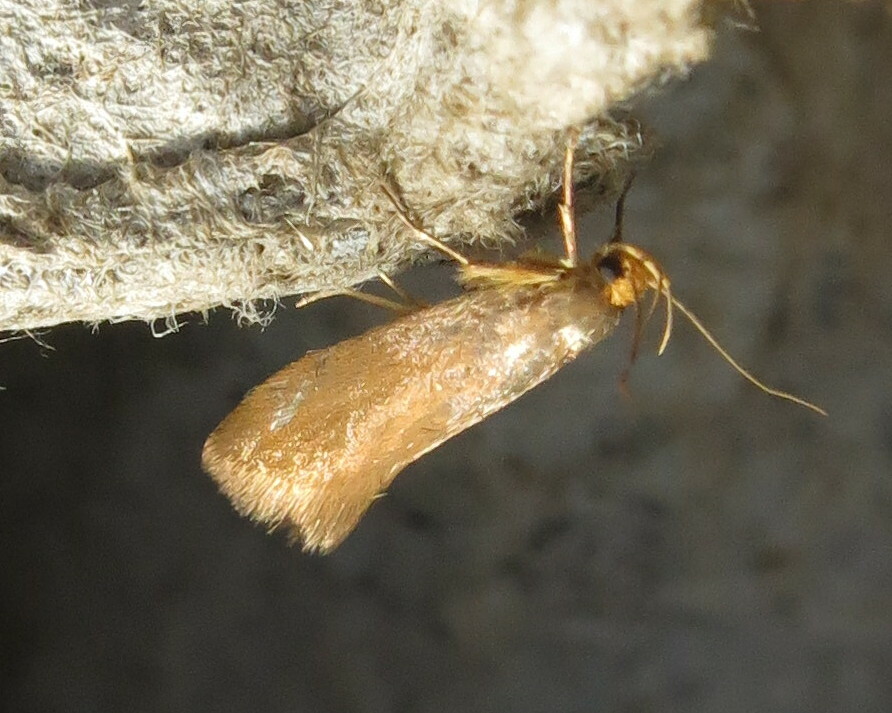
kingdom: Animalia
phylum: Arthropoda
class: Insecta
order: Lepidoptera
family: Oecophoridae
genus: Borkhausenia
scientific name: Borkhausenia Crassa unitella
